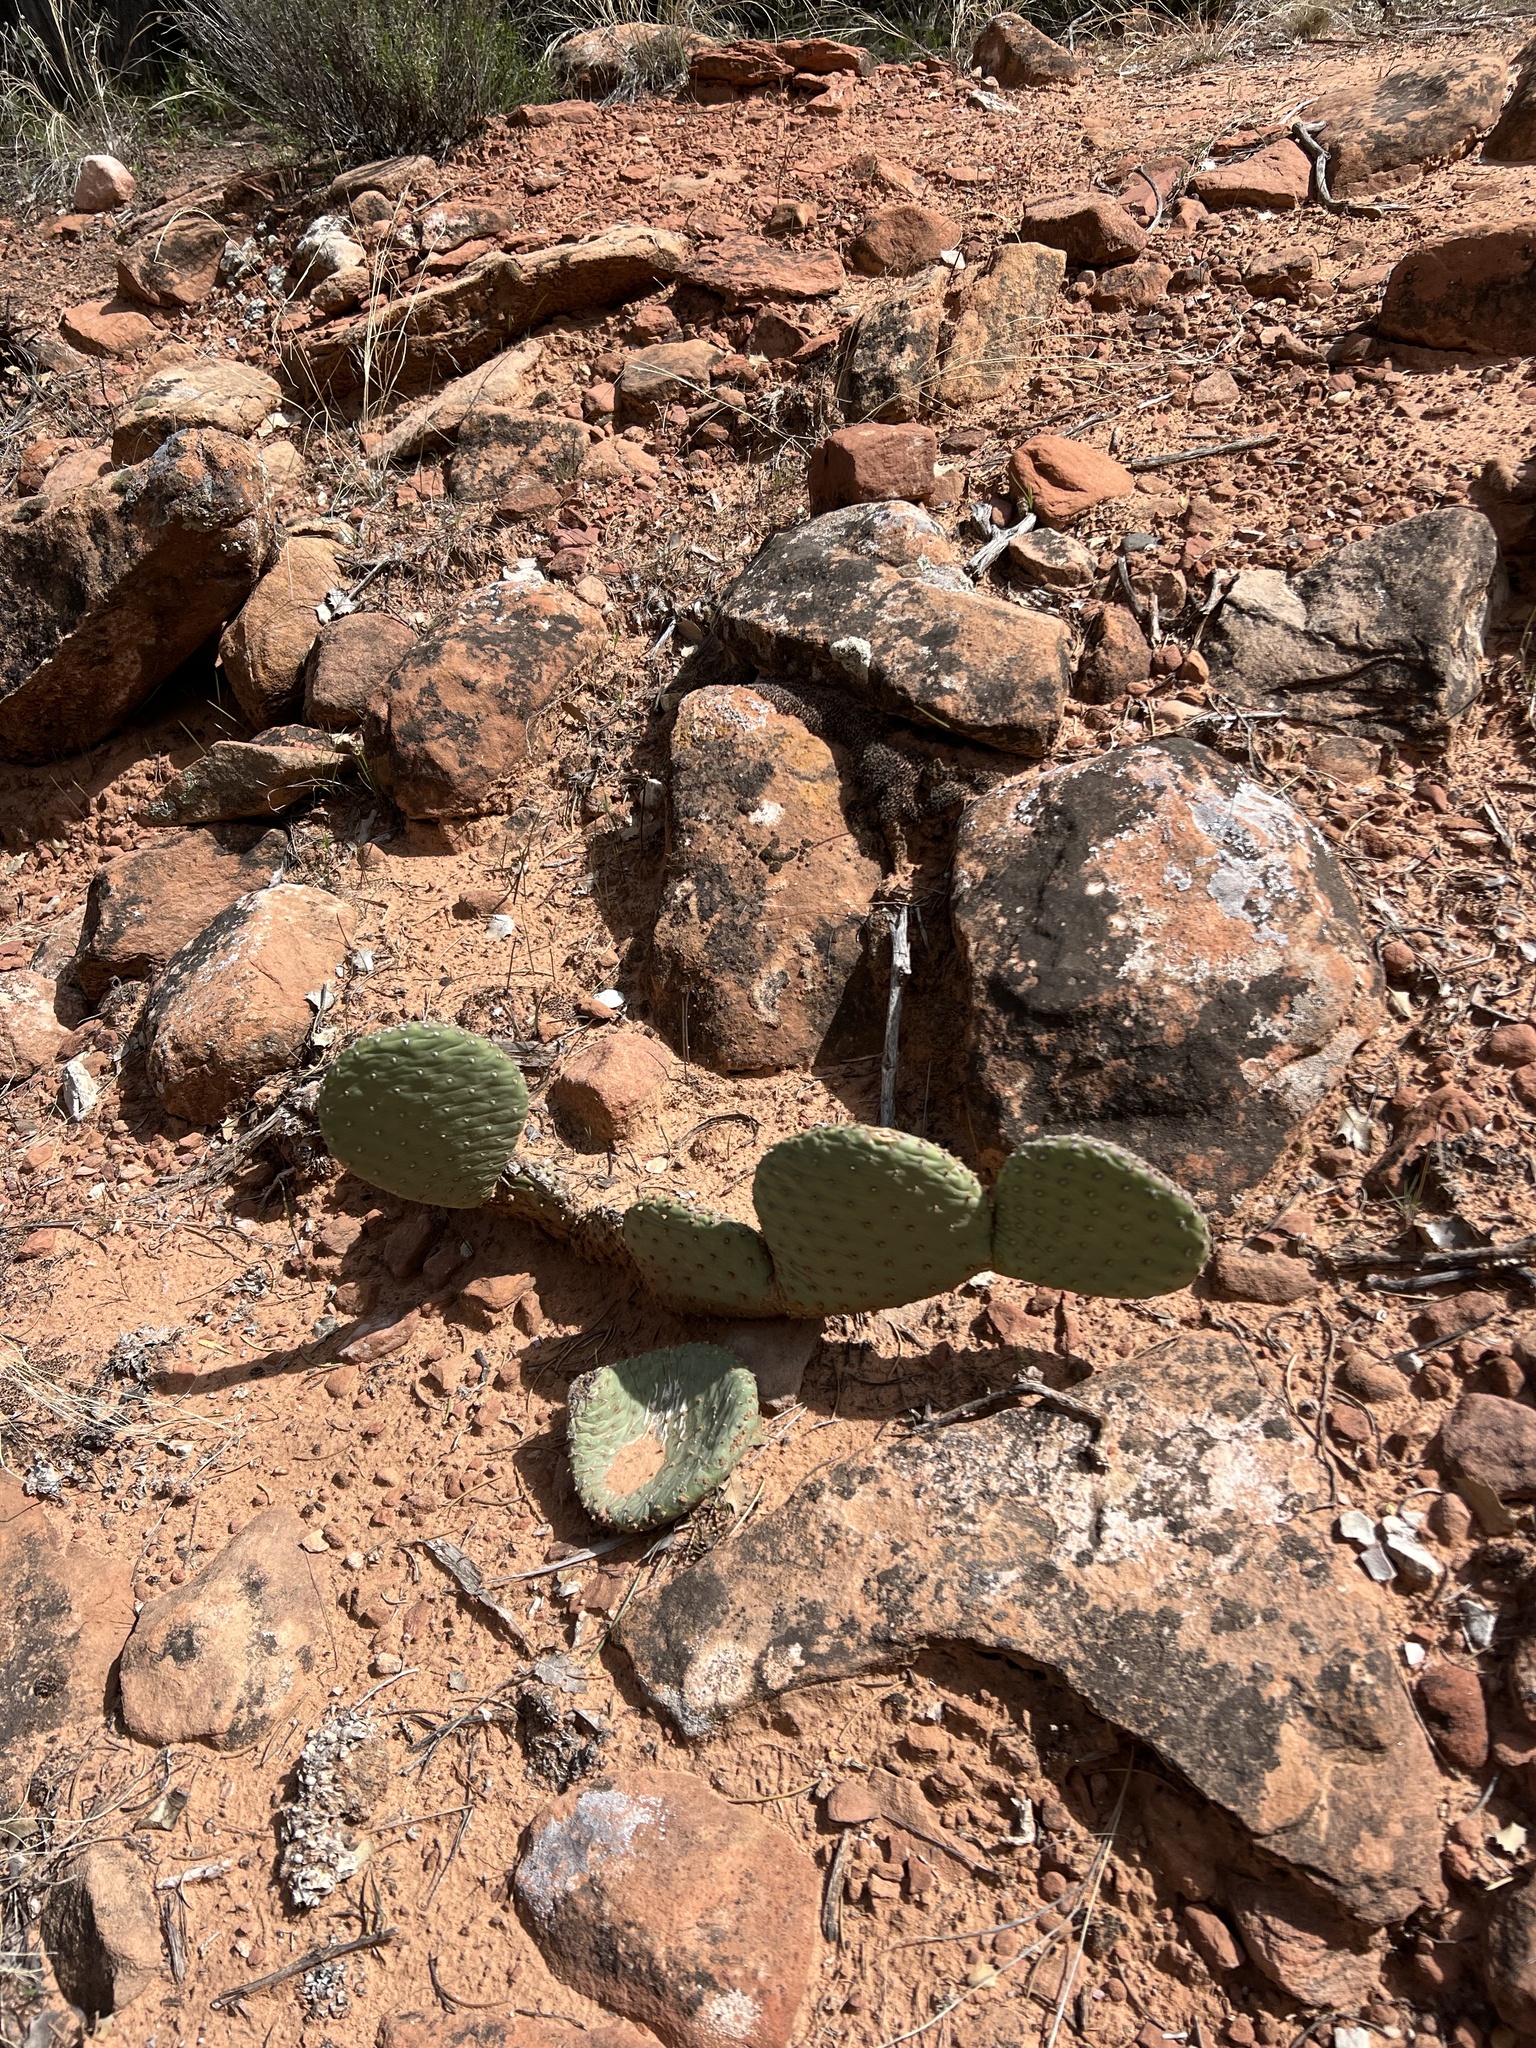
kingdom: Plantae
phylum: Tracheophyta
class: Magnoliopsida
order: Caryophyllales
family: Cactaceae
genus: Opuntia
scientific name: Opuntia aurea
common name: Golden prickly-pear
